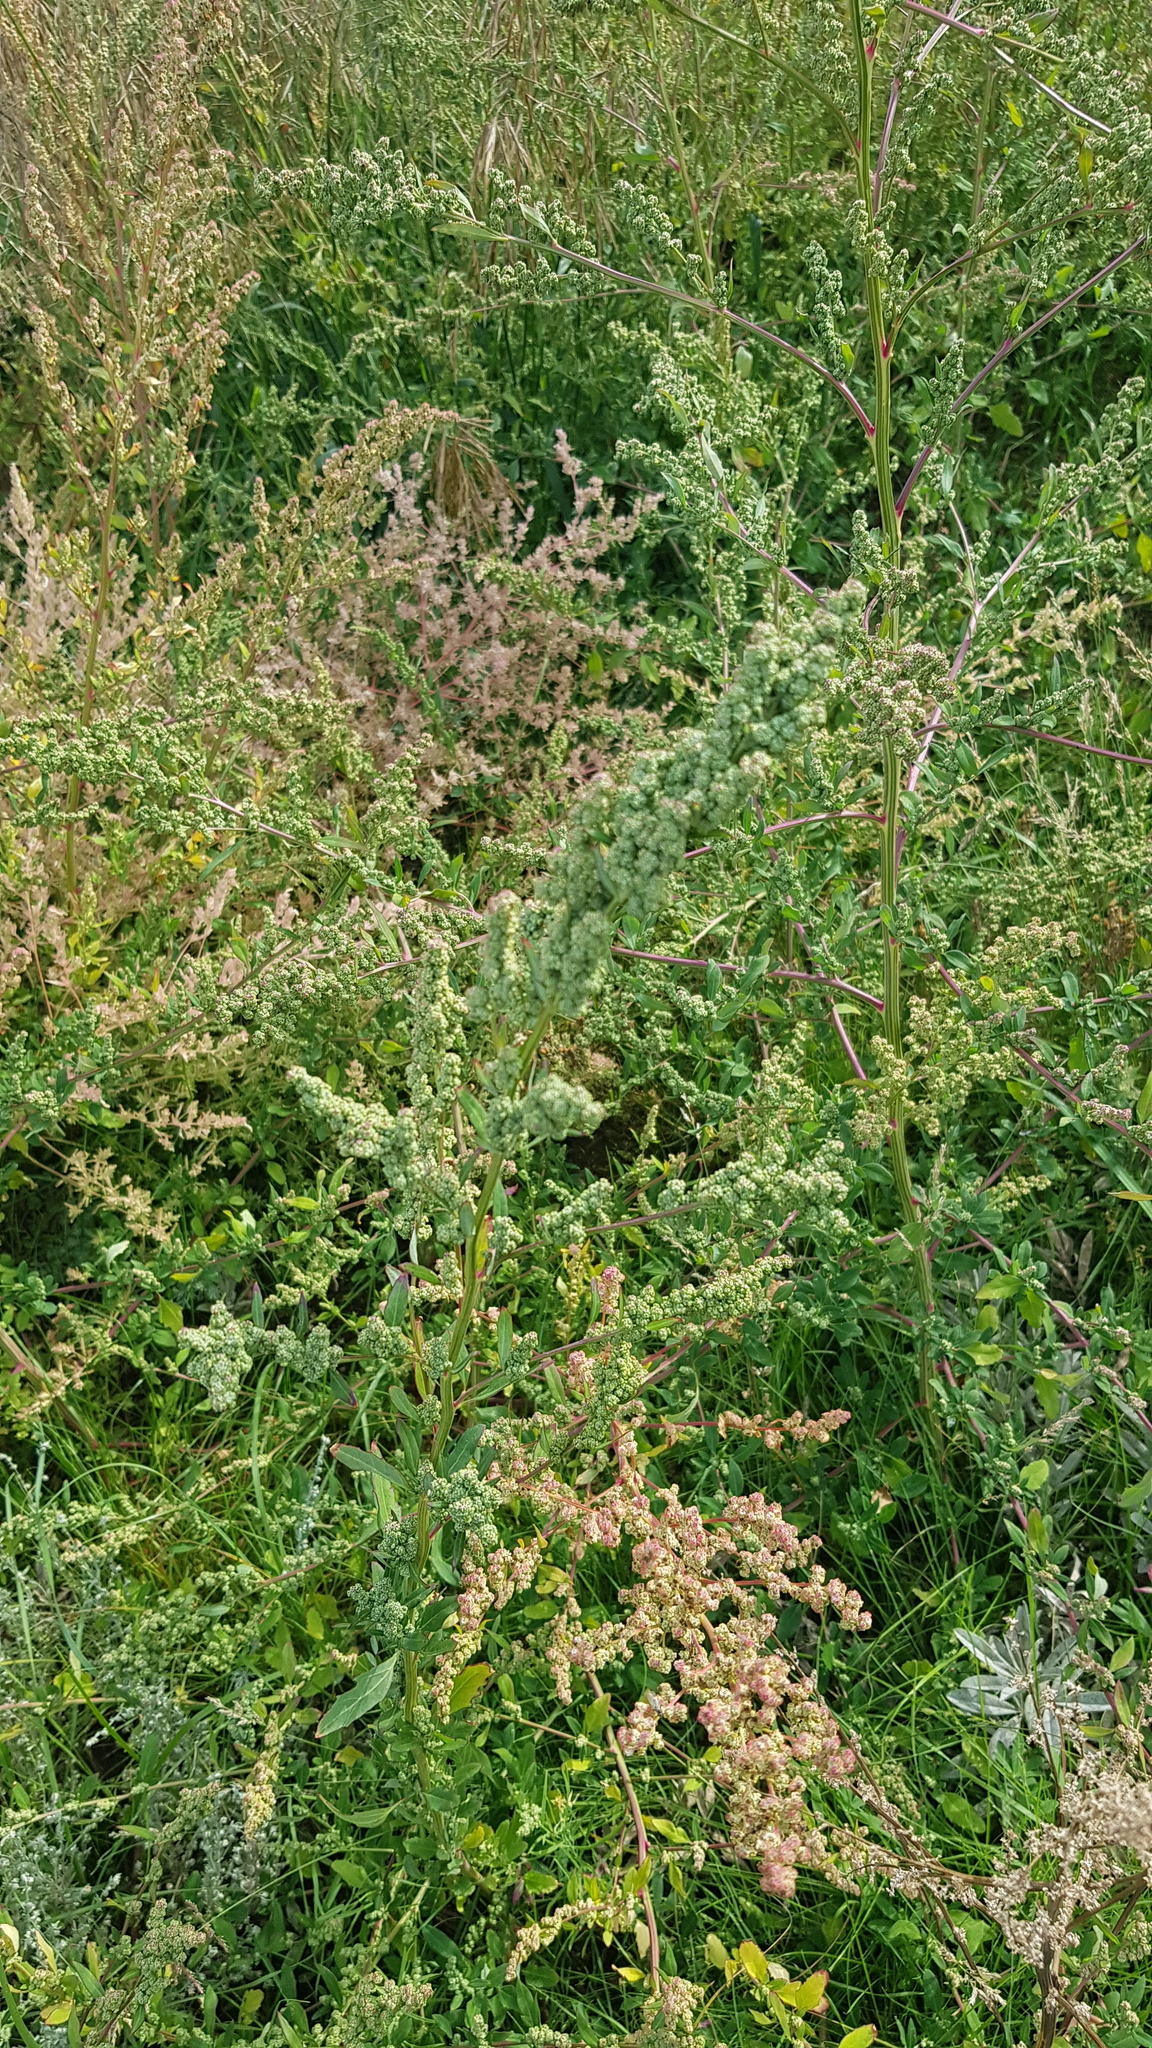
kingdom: Plantae
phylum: Tracheophyta
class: Magnoliopsida
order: Caryophyllales
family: Amaranthaceae
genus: Chenopodium
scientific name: Chenopodium album
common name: Fat-hen
